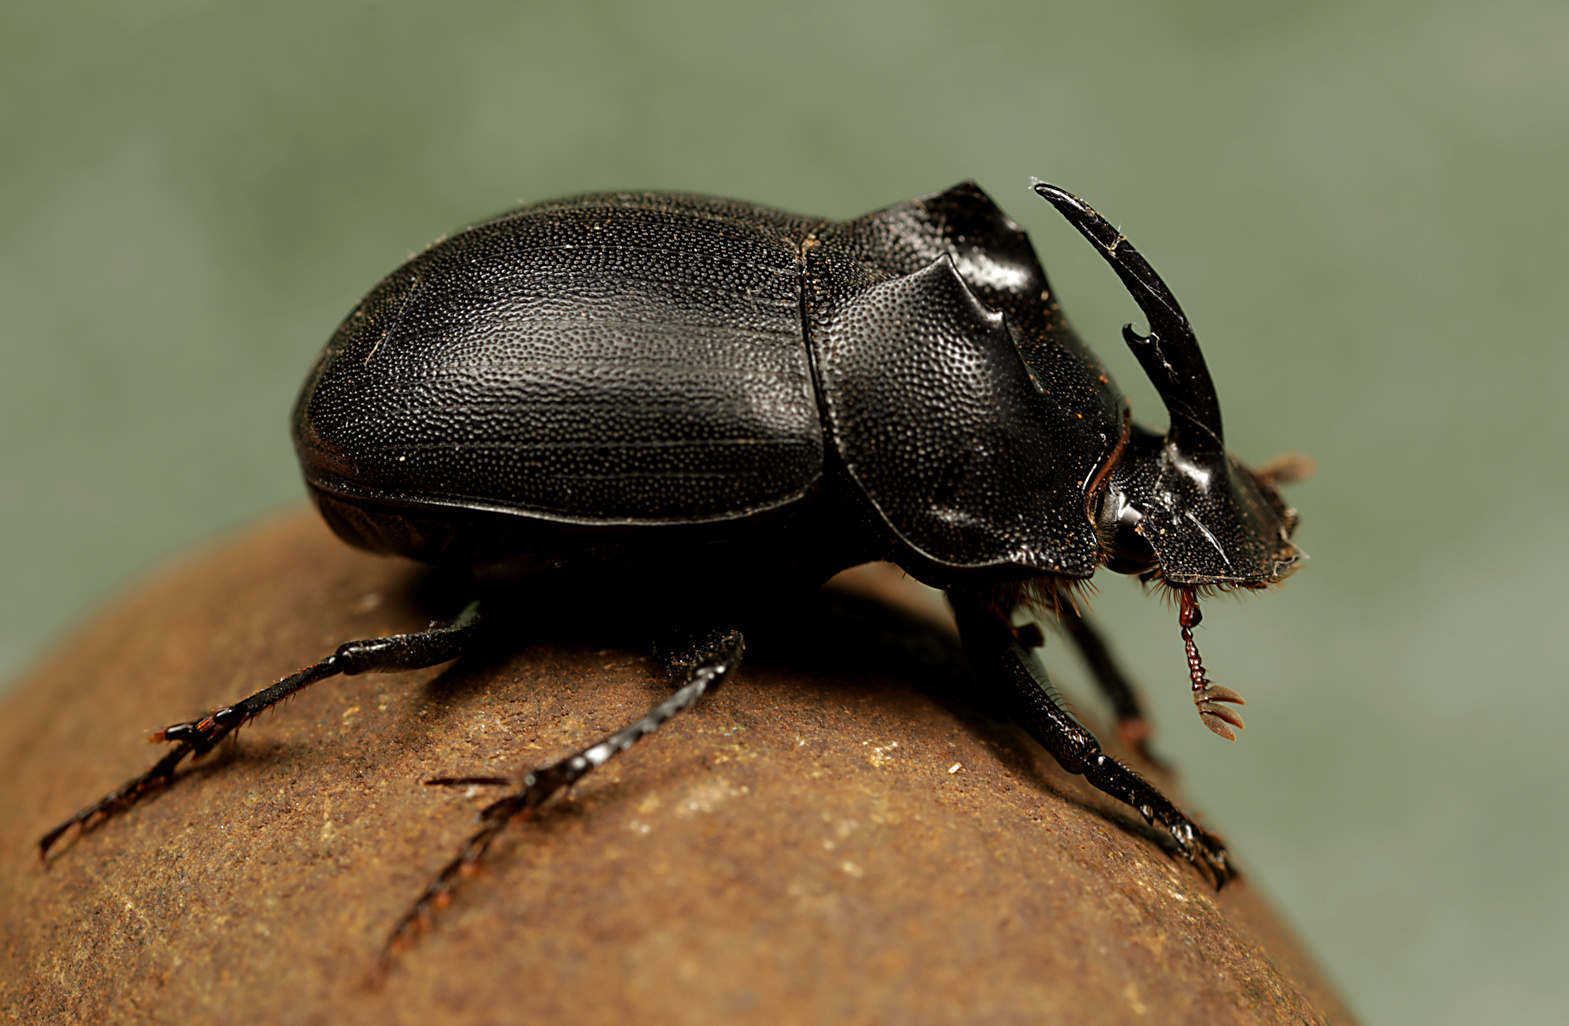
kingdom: Animalia
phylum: Arthropoda
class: Insecta
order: Coleoptera
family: Scarabaeidae
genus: Copris
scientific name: Copris fidius
